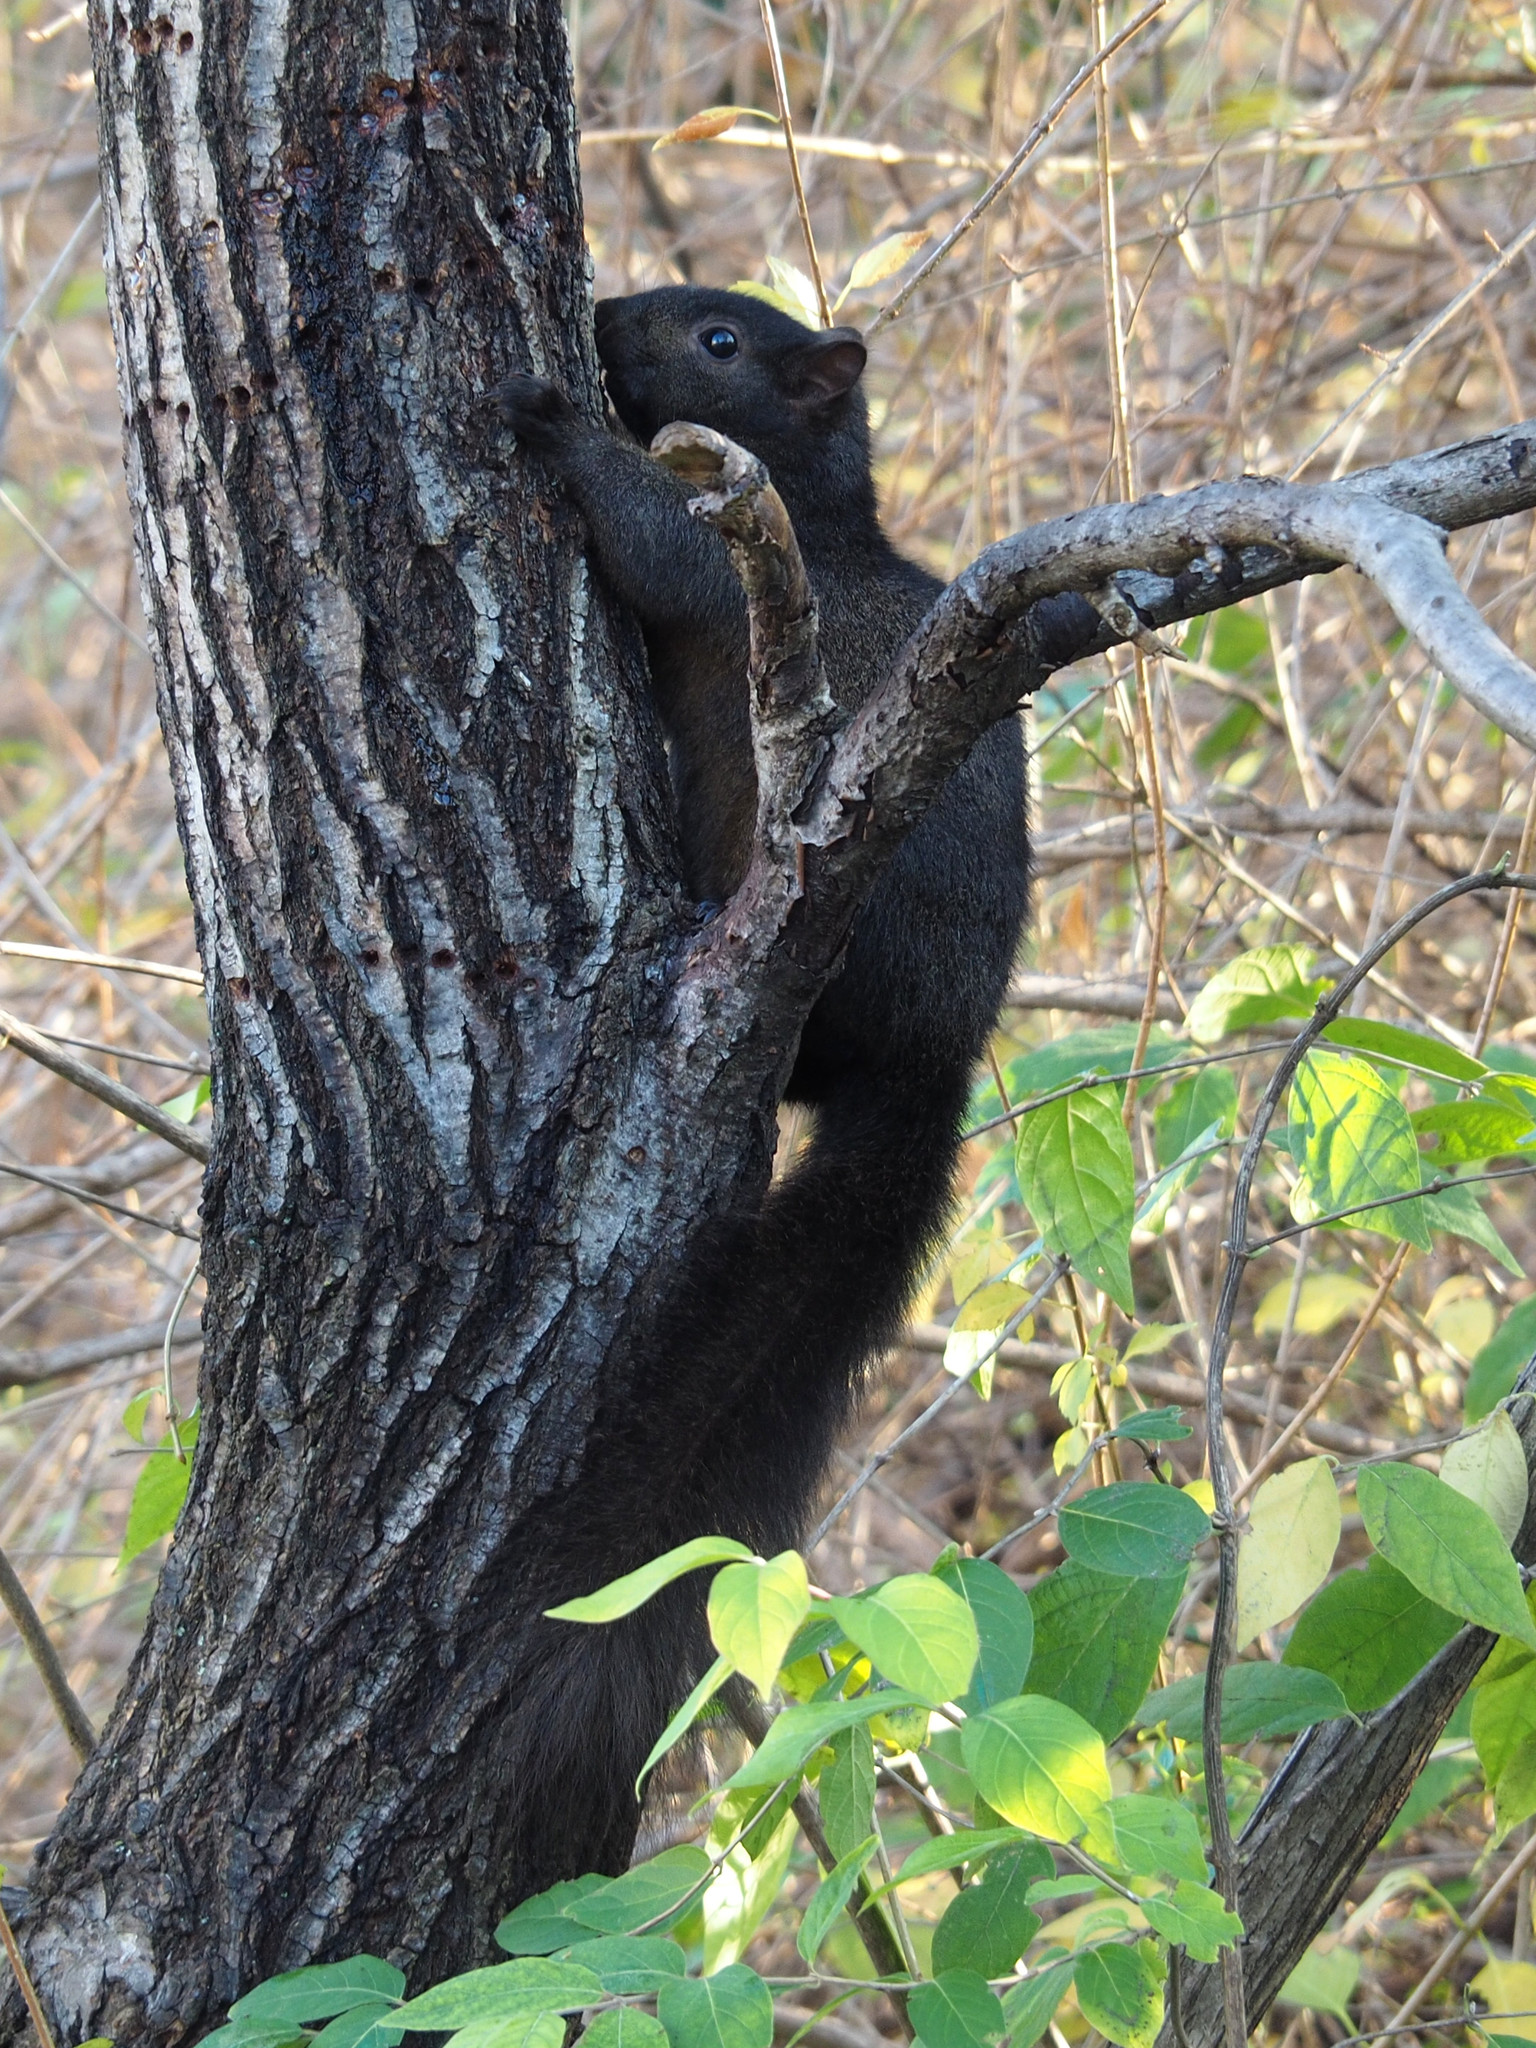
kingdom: Animalia
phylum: Chordata
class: Mammalia
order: Rodentia
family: Sciuridae
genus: Sciurus
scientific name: Sciurus carolinensis
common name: Eastern gray squirrel
